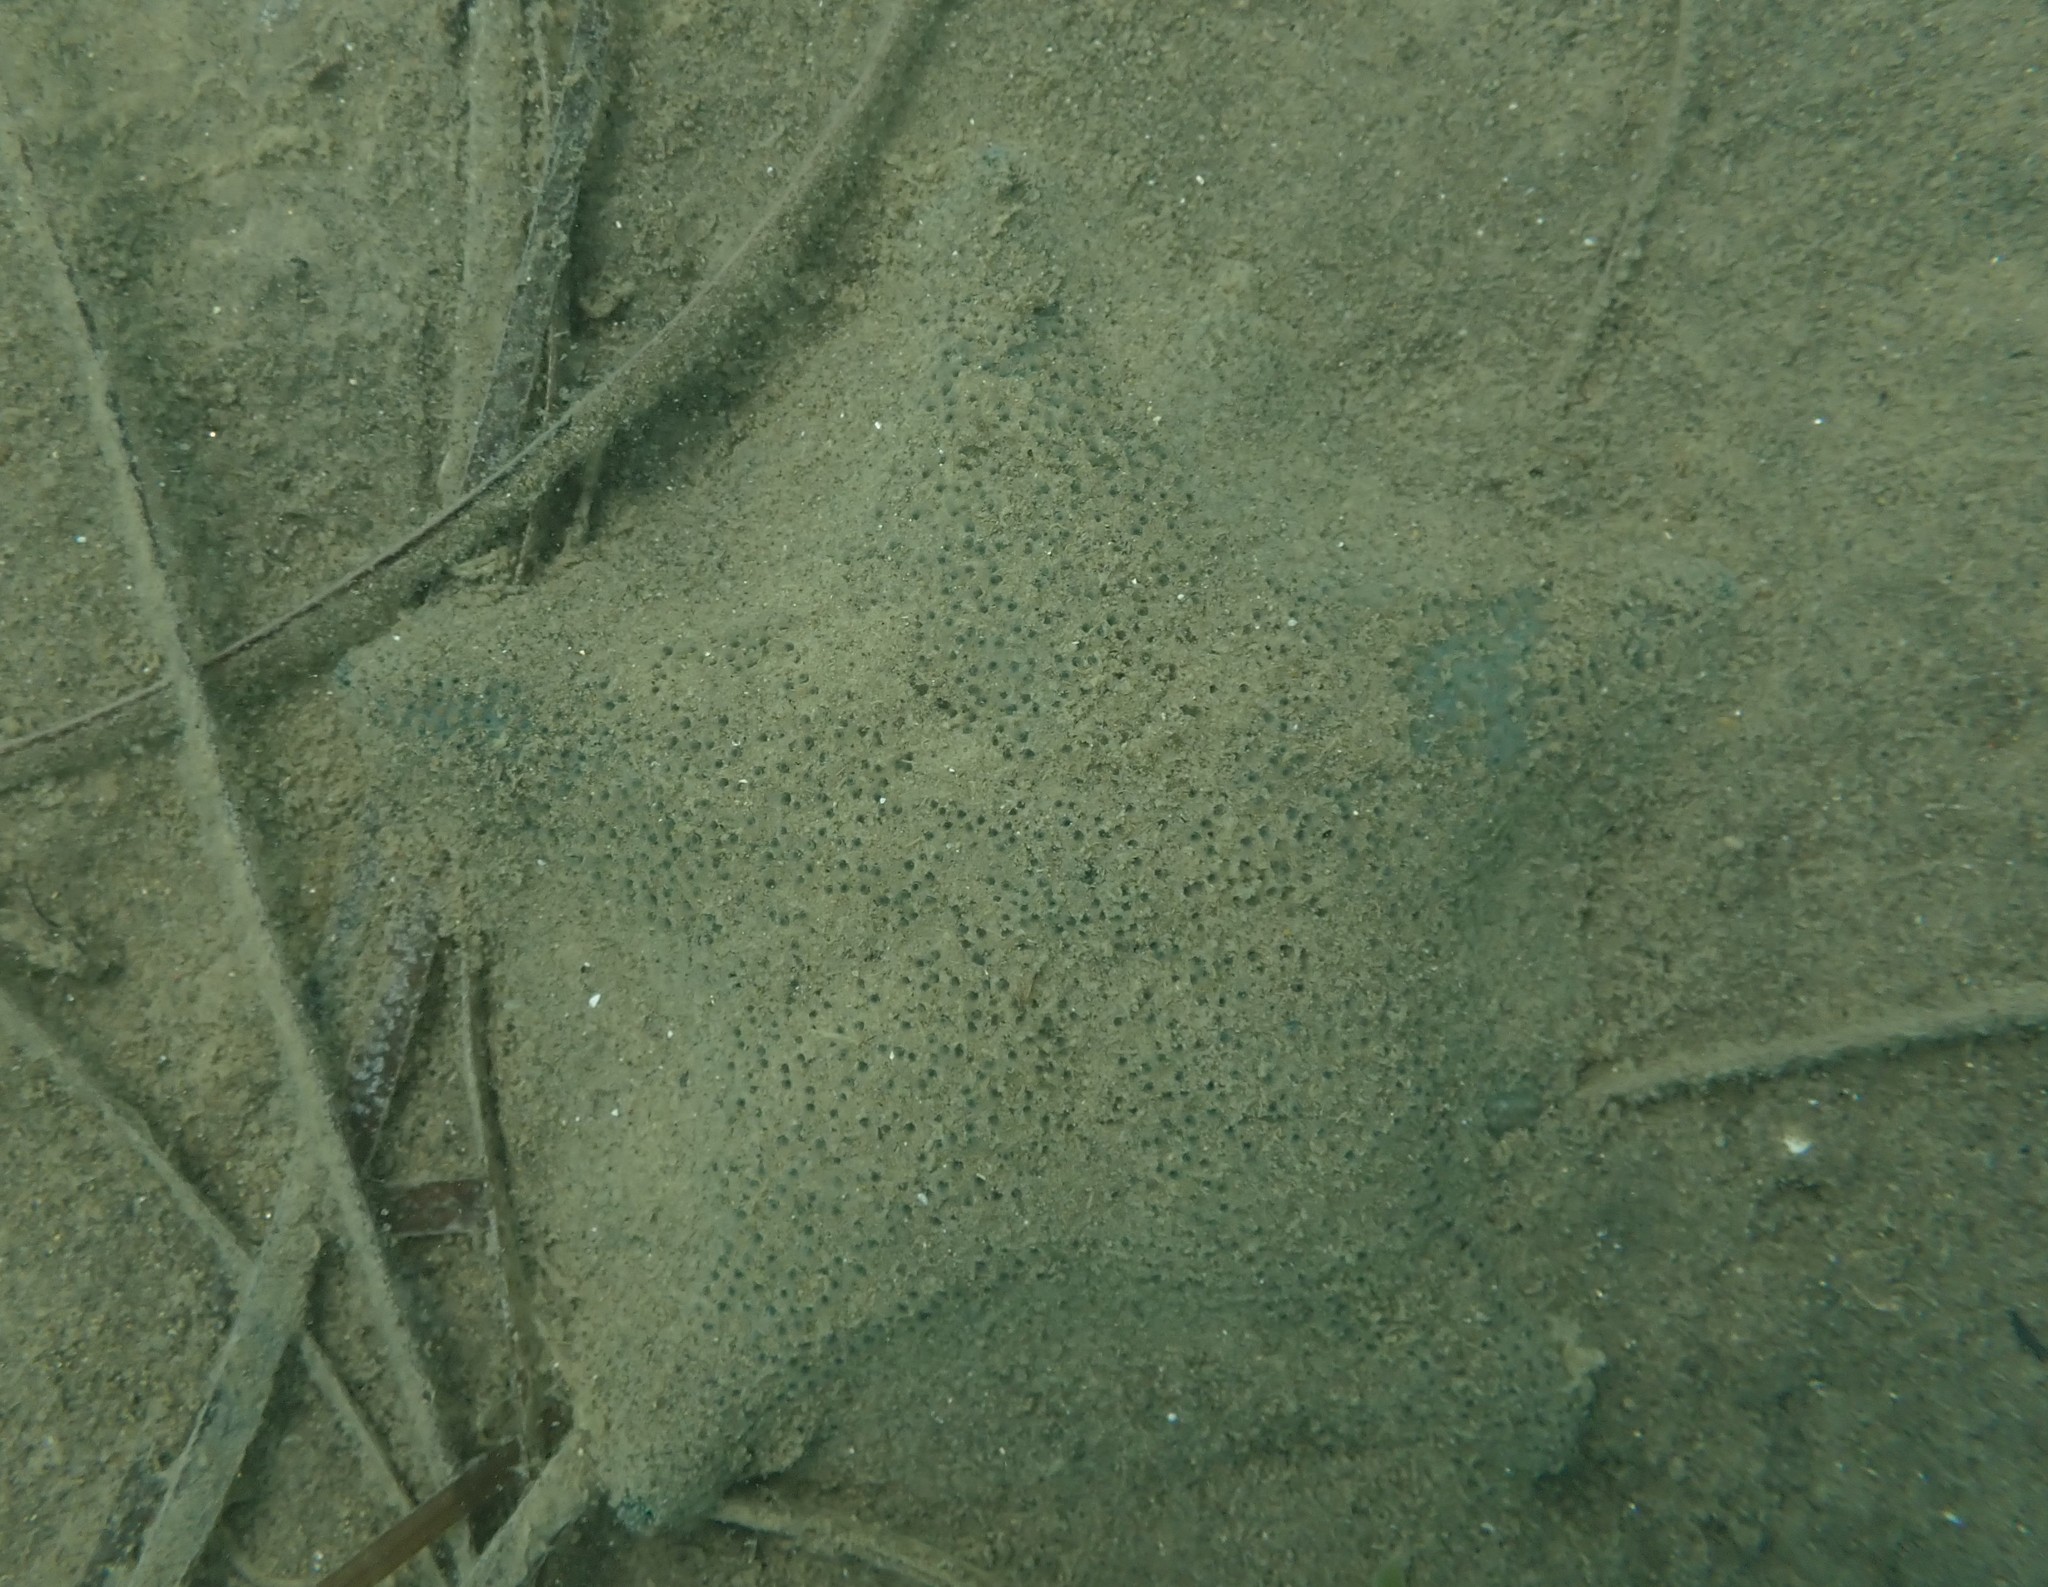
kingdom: Animalia
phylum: Echinodermata
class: Asteroidea
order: Valvatida
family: Asterinidae
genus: Patiriella
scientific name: Patiriella regularis
